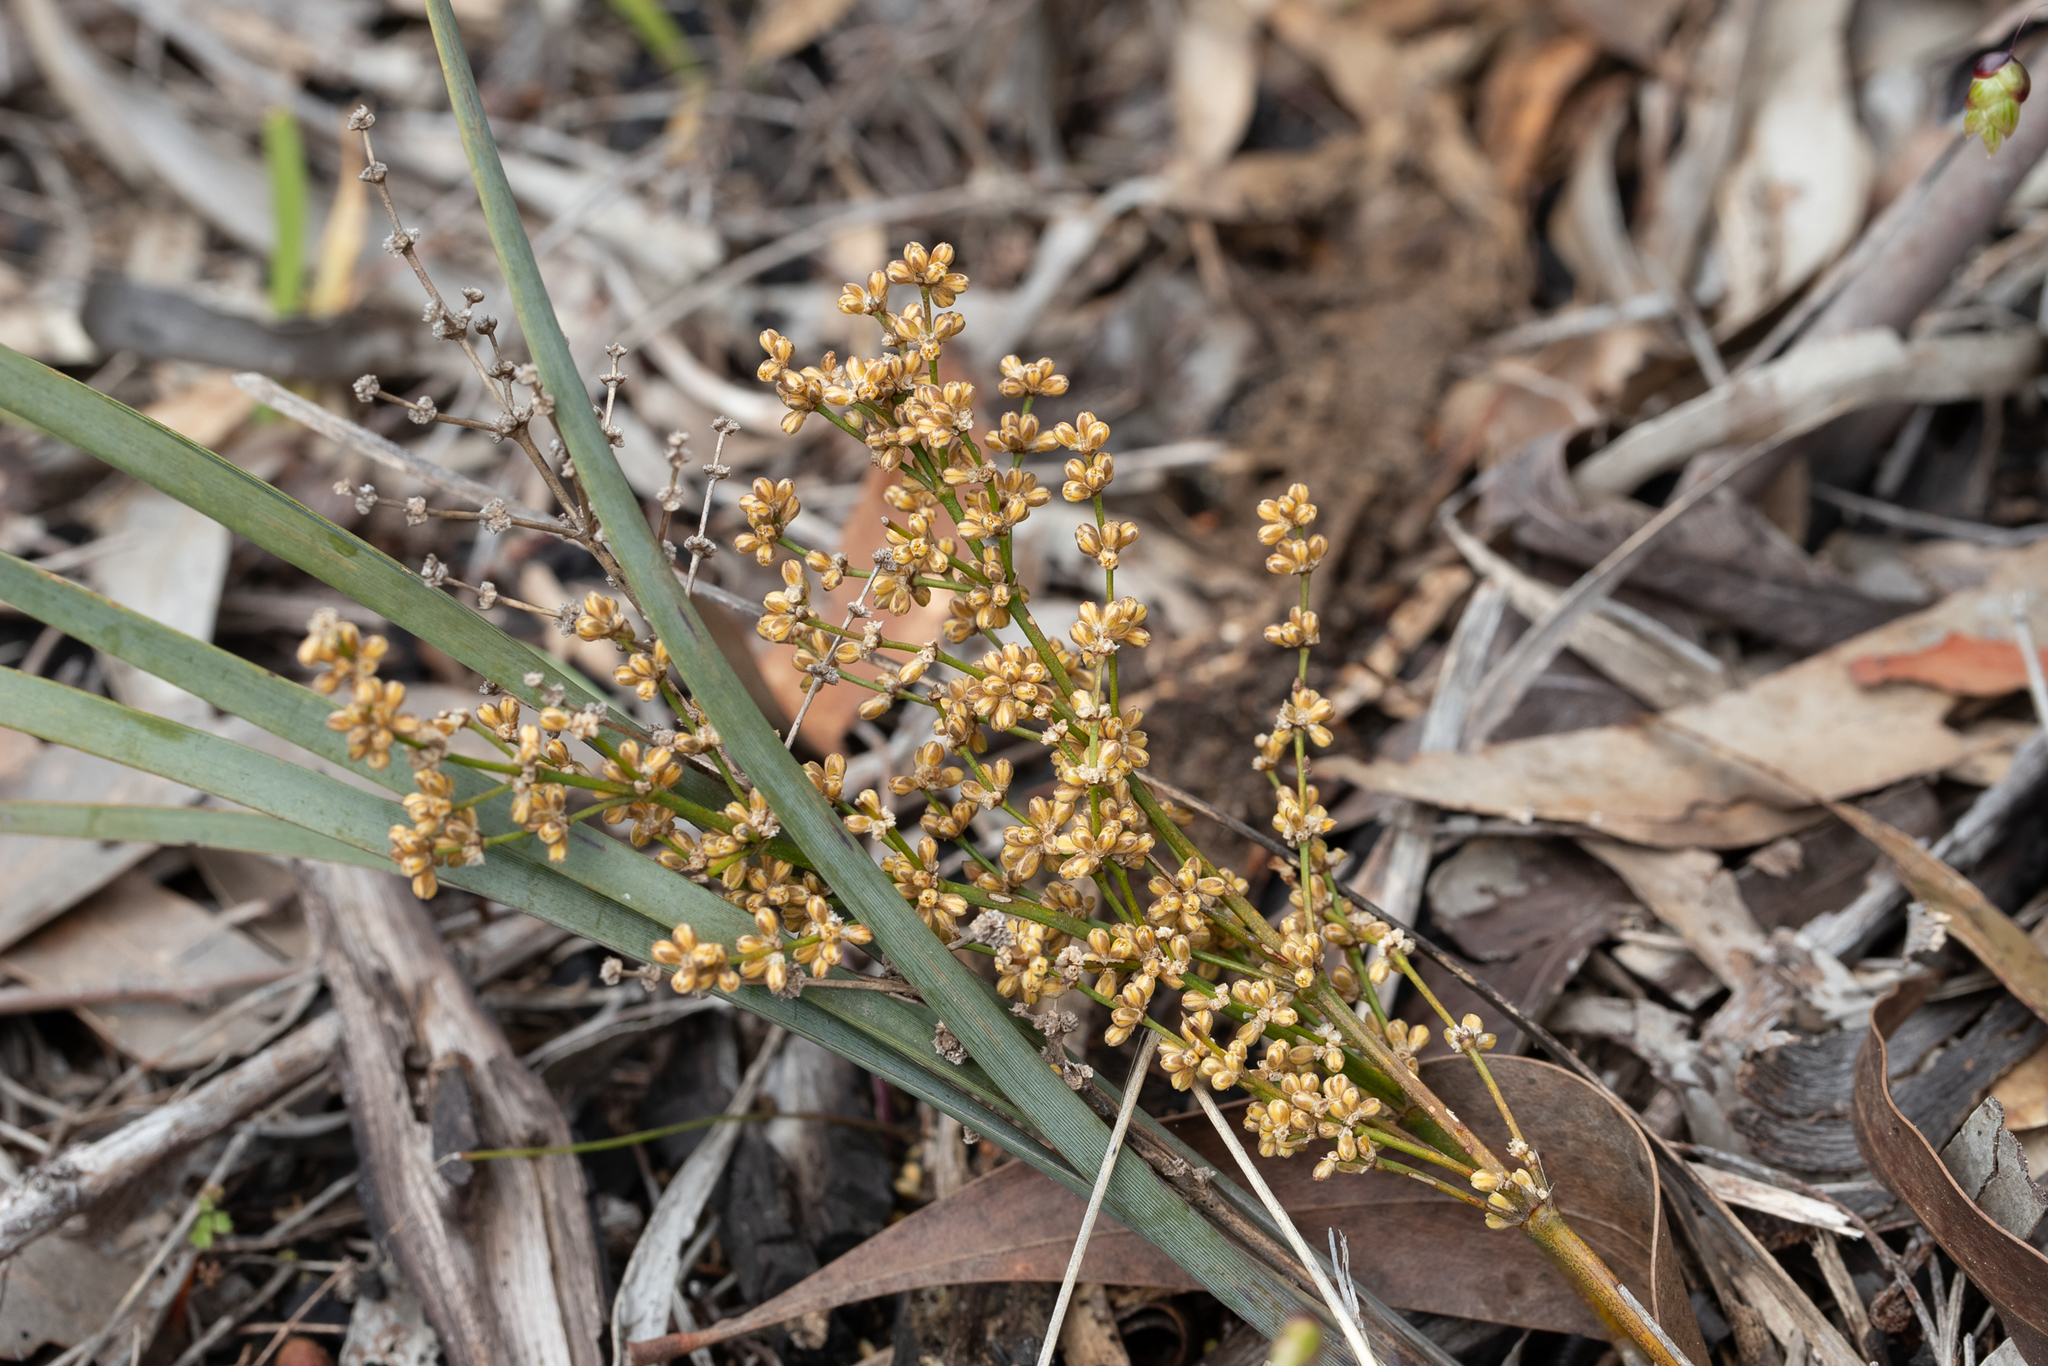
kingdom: Plantae
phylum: Tracheophyta
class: Liliopsida
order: Asparagales
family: Asparagaceae
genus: Lomandra
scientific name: Lomandra multiflora
